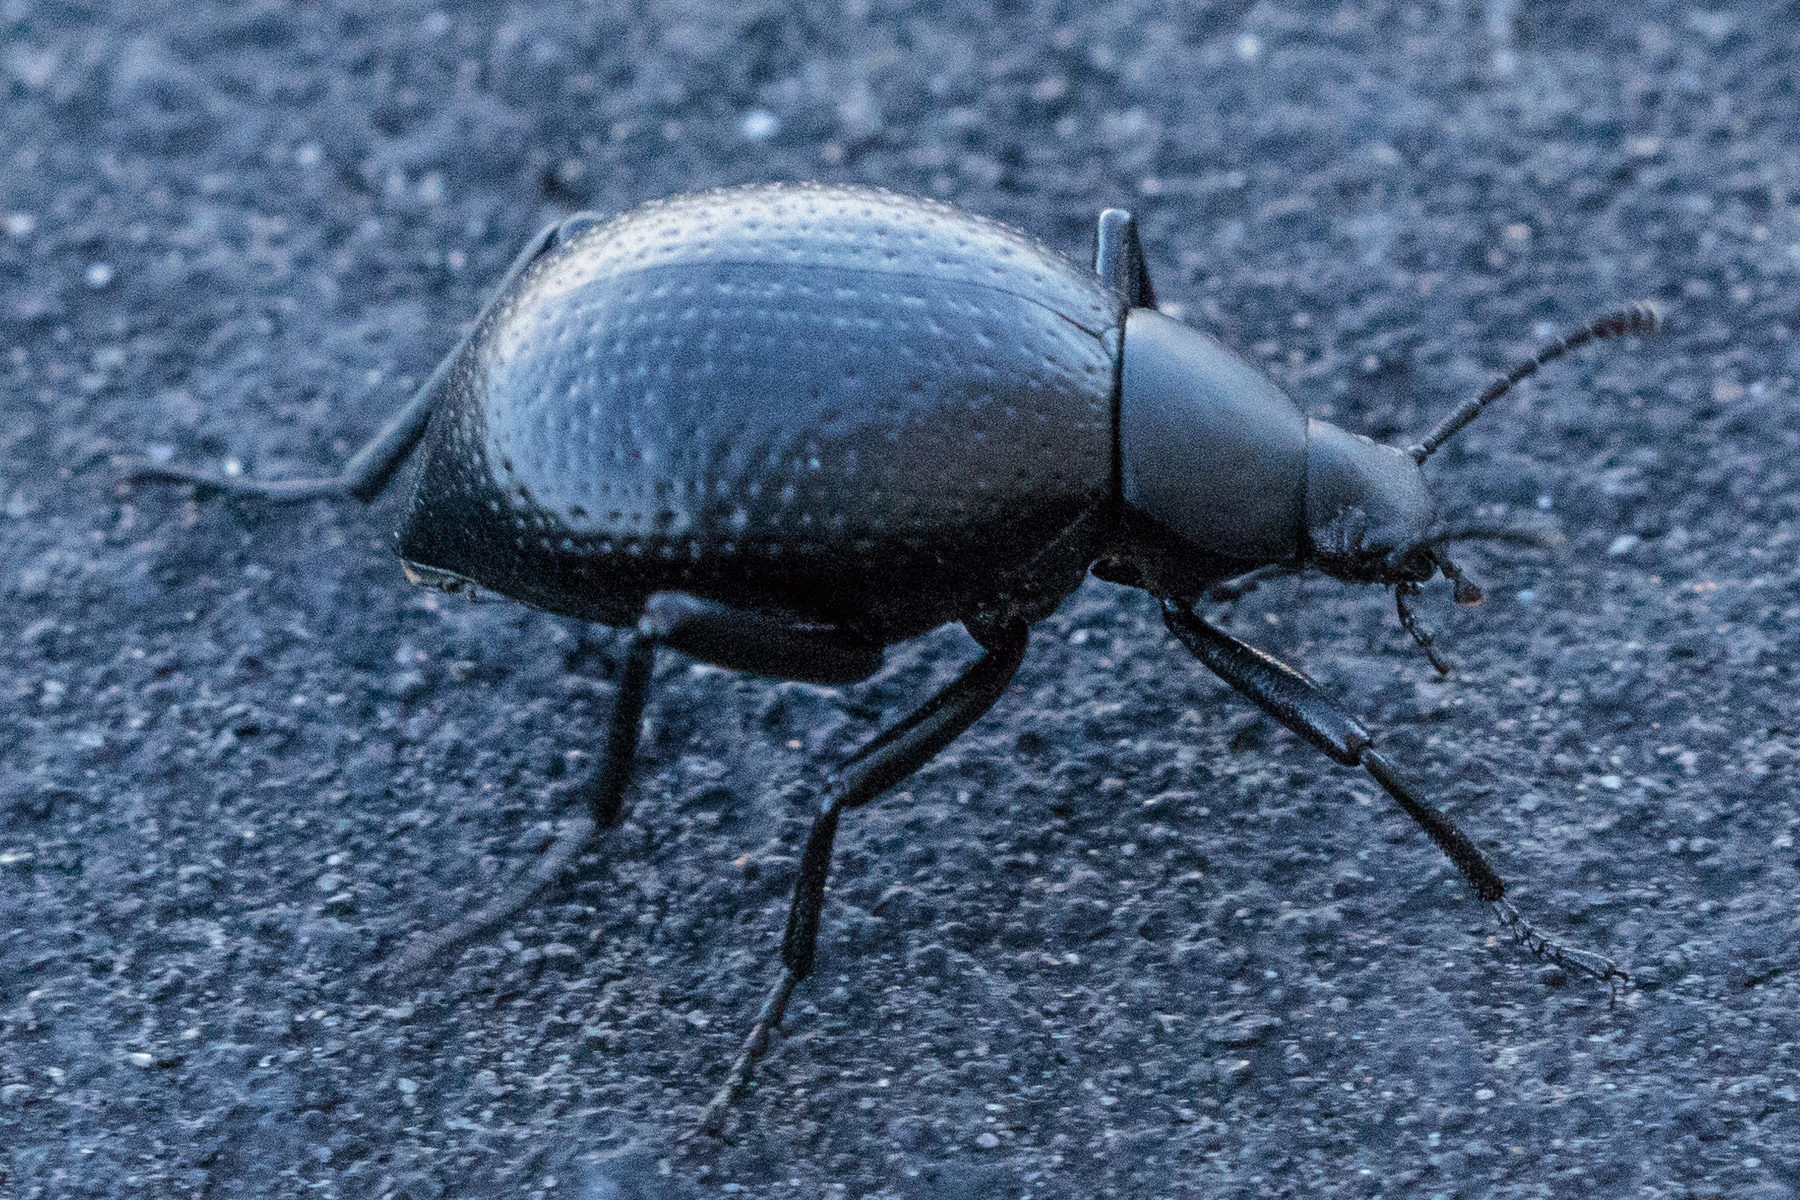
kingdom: Animalia
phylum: Arthropoda
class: Insecta
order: Coleoptera
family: Tenebrionidae
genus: Eleodes
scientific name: Eleodes goryi
